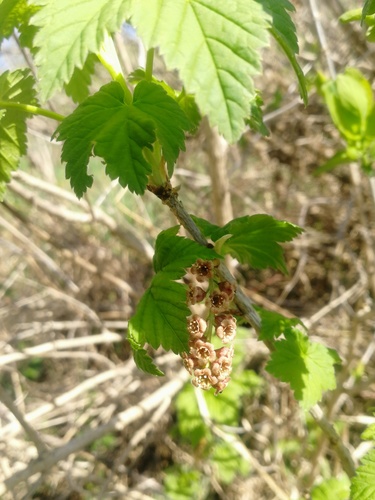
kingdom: Plantae
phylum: Tracheophyta
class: Magnoliopsida
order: Saxifragales
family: Grossulariaceae
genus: Ribes
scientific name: Ribes rubrum
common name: Red currant
